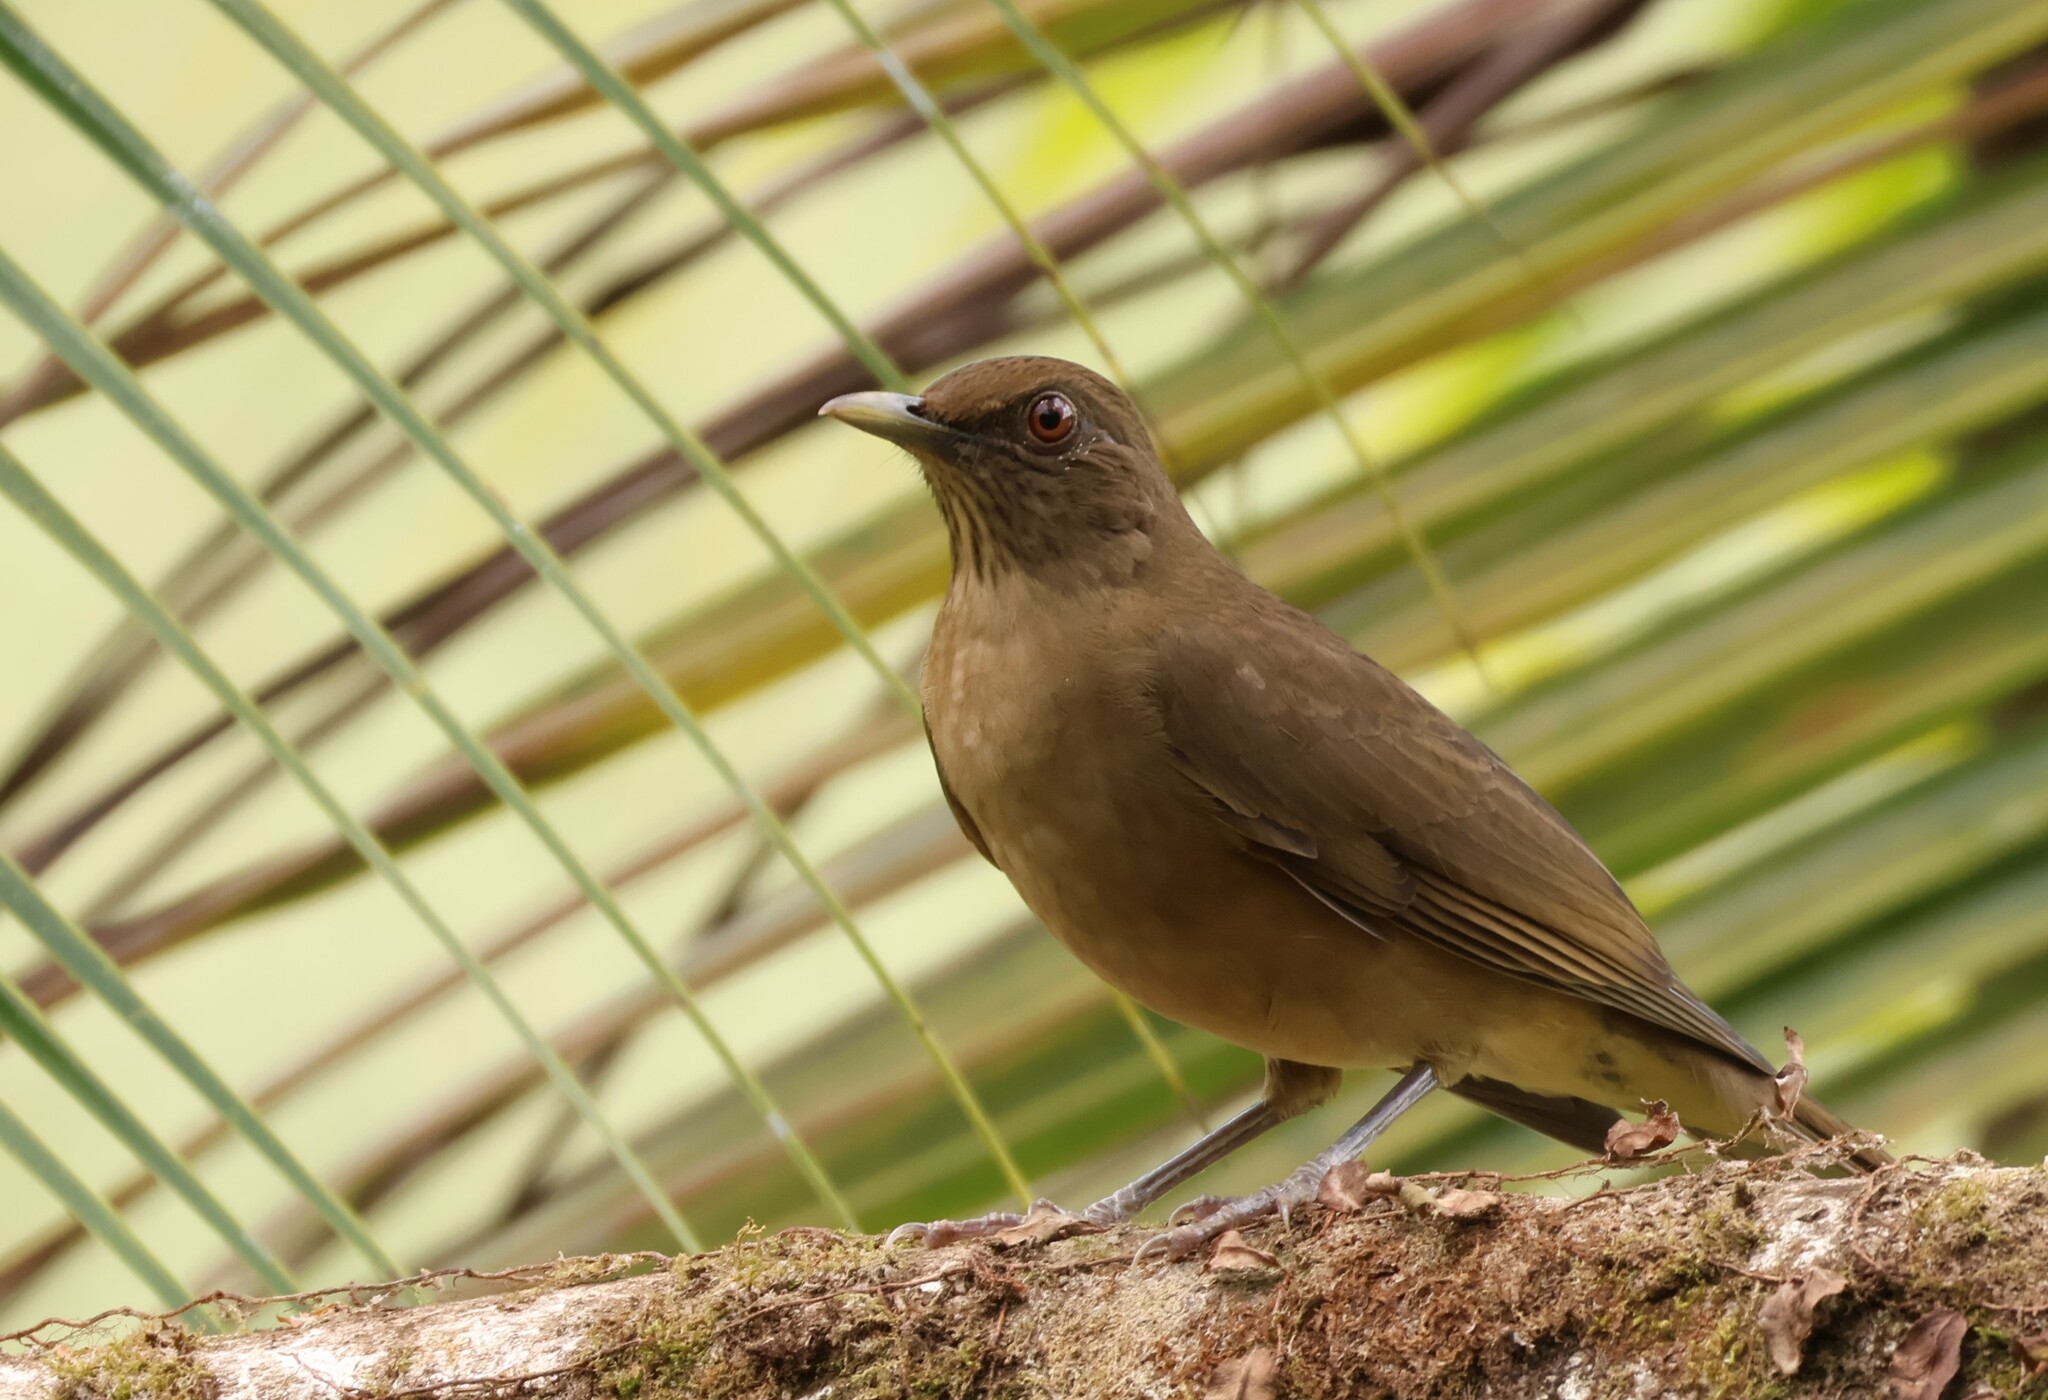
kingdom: Animalia
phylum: Chordata
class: Aves
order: Passeriformes
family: Turdidae
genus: Turdus
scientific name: Turdus grayi
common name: Clay-colored thrush
